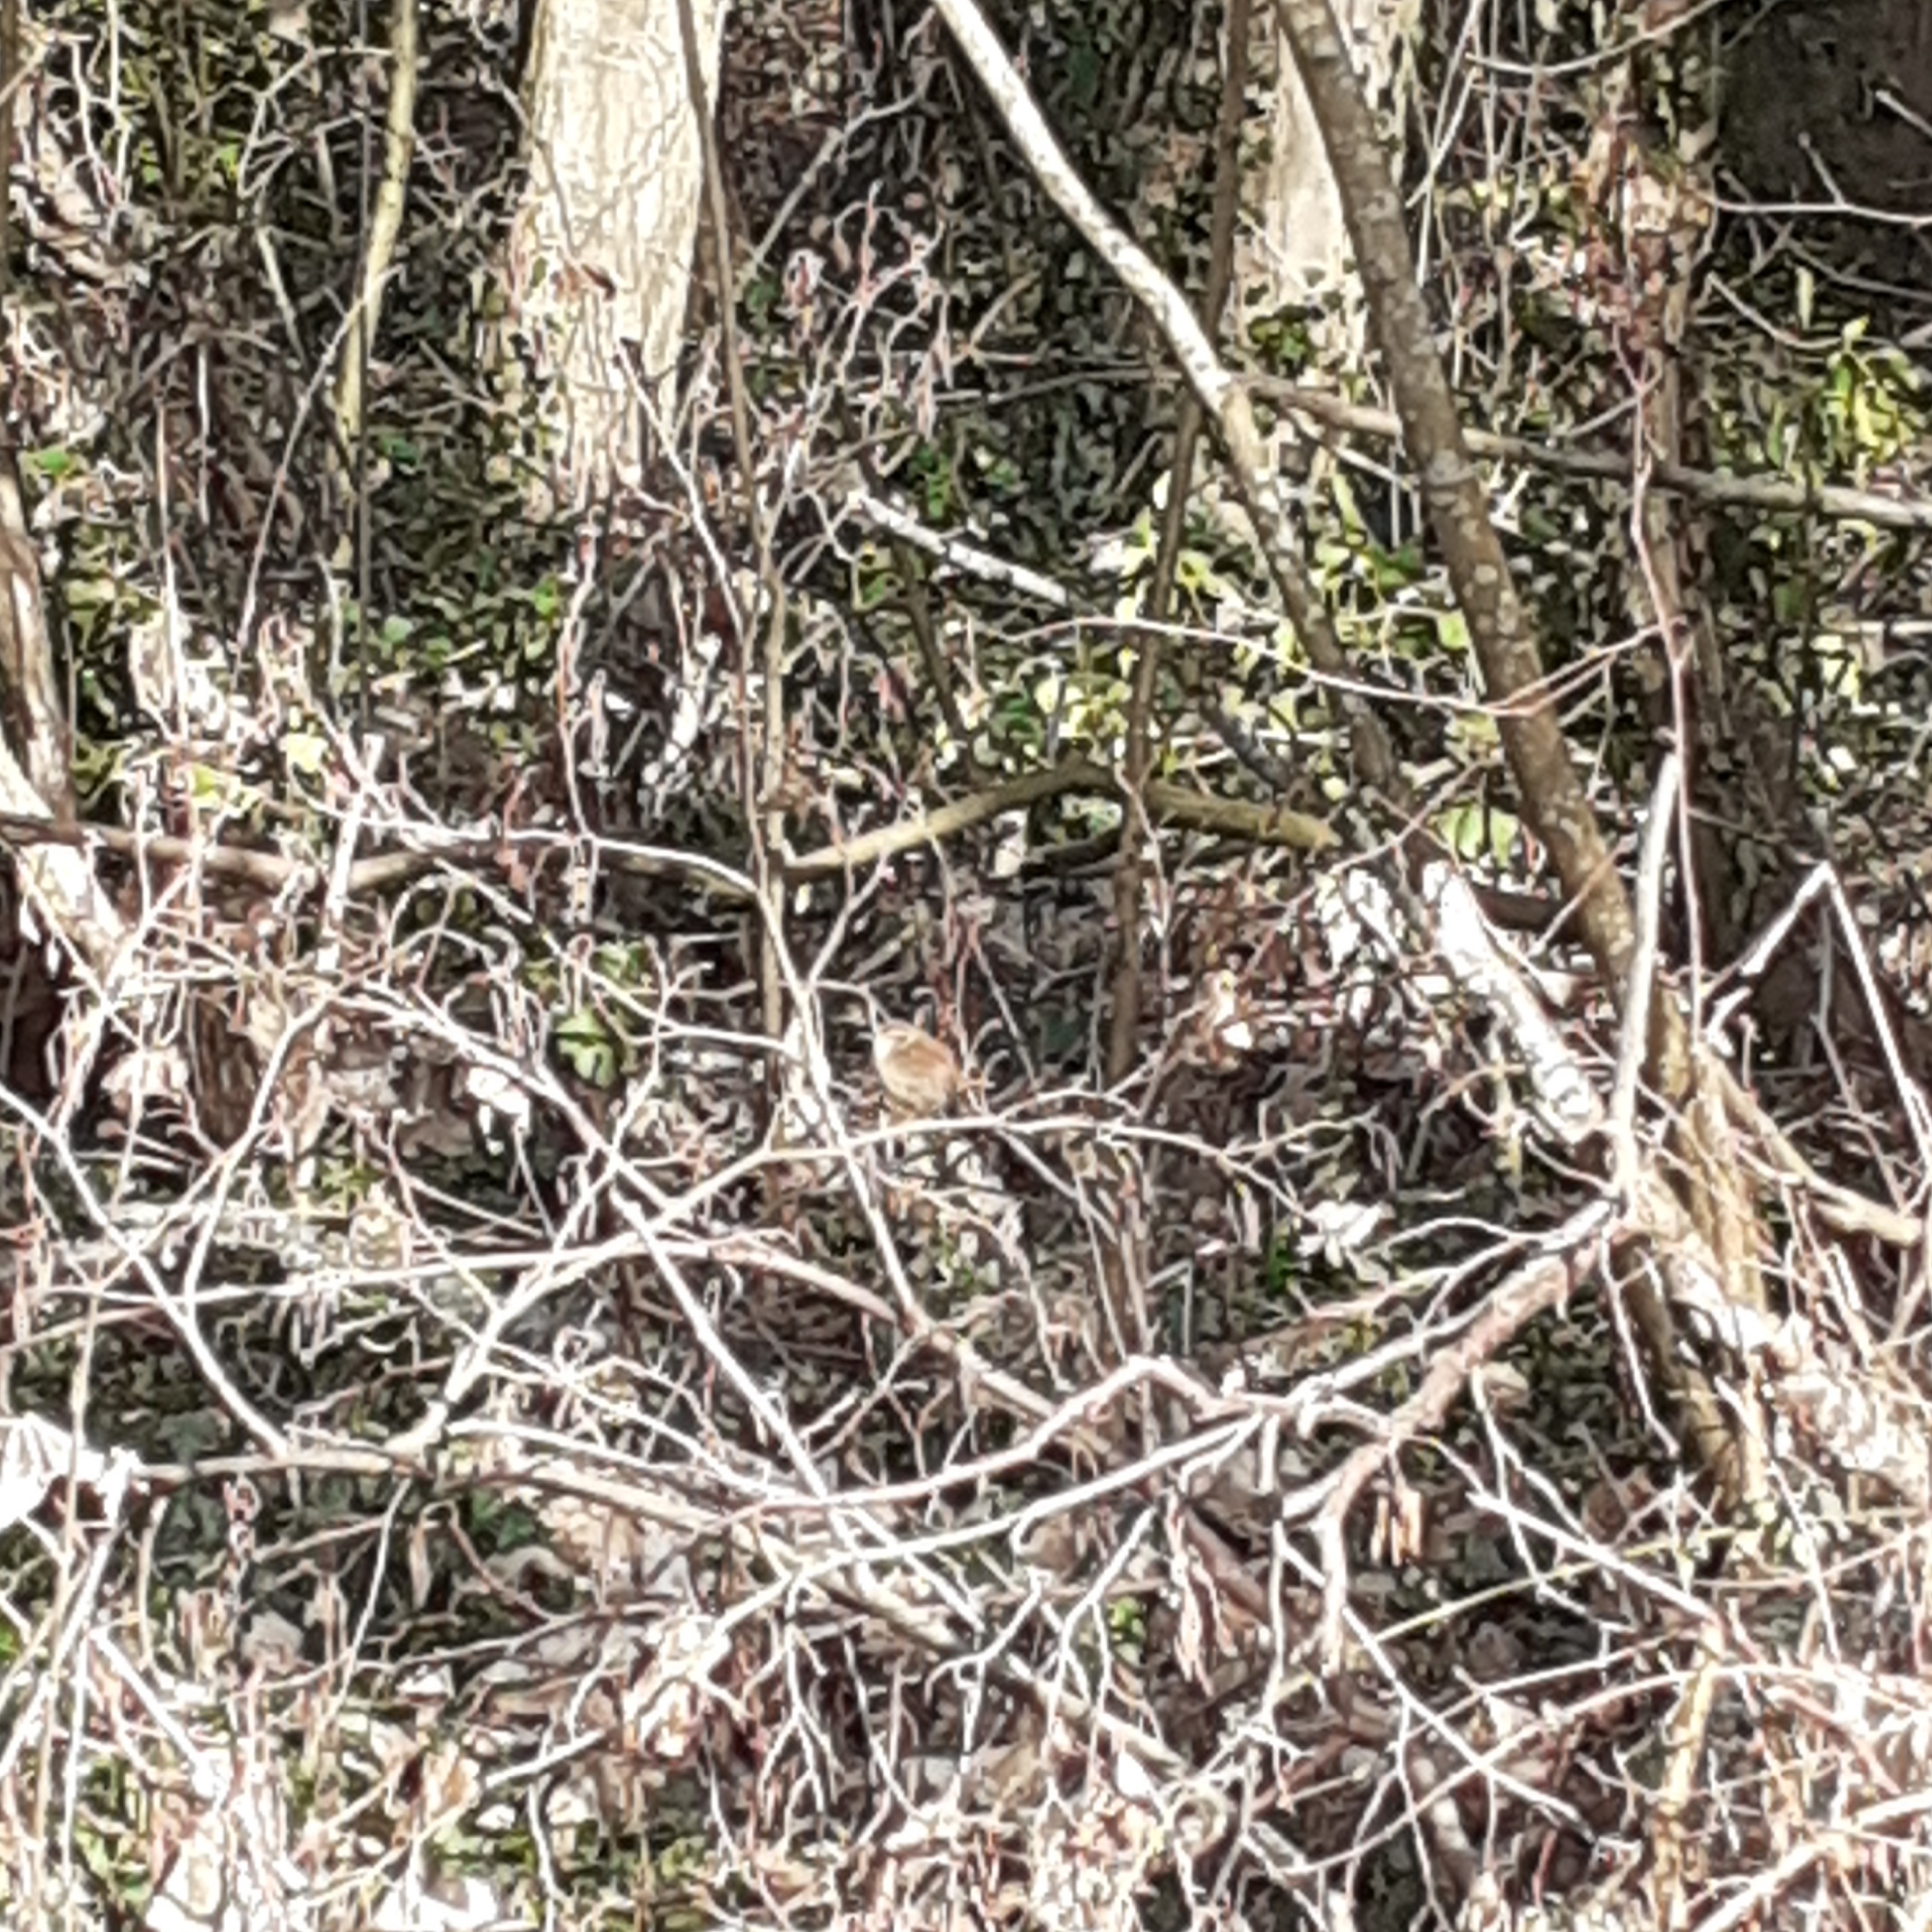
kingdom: Animalia
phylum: Chordata
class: Aves
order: Passeriformes
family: Troglodytidae
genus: Troglodytes
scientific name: Troglodytes troglodytes
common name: Eurasian wren
